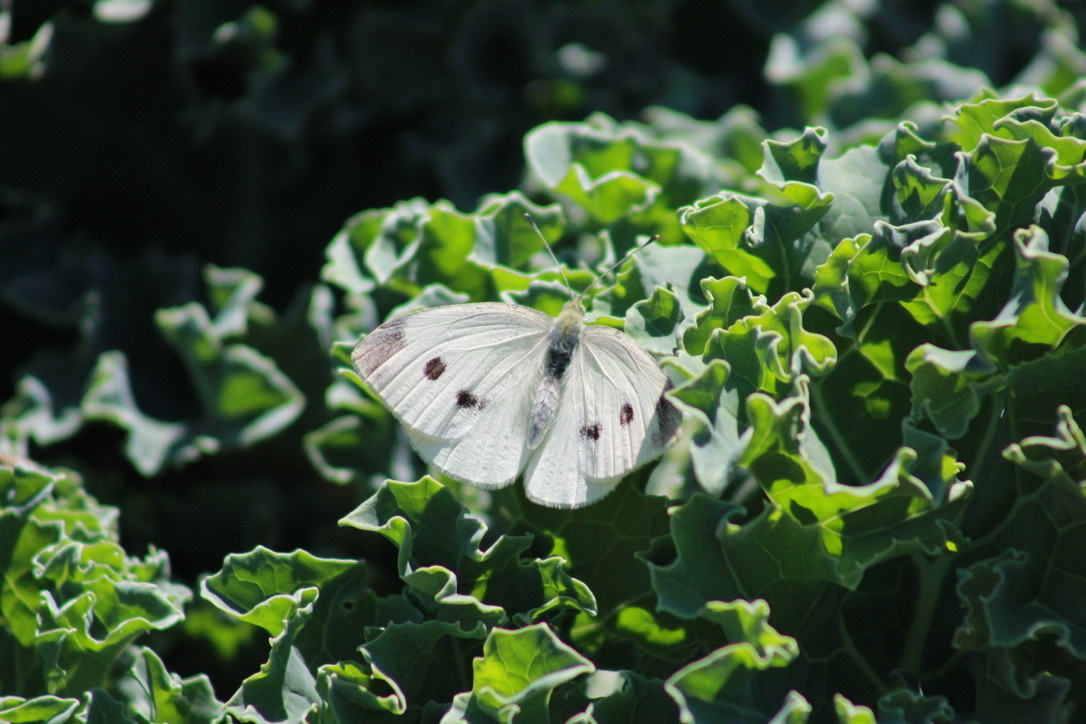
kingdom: Animalia
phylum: Arthropoda
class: Insecta
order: Lepidoptera
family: Pieridae
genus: Pieris
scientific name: Pieris rapae
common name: Small white
